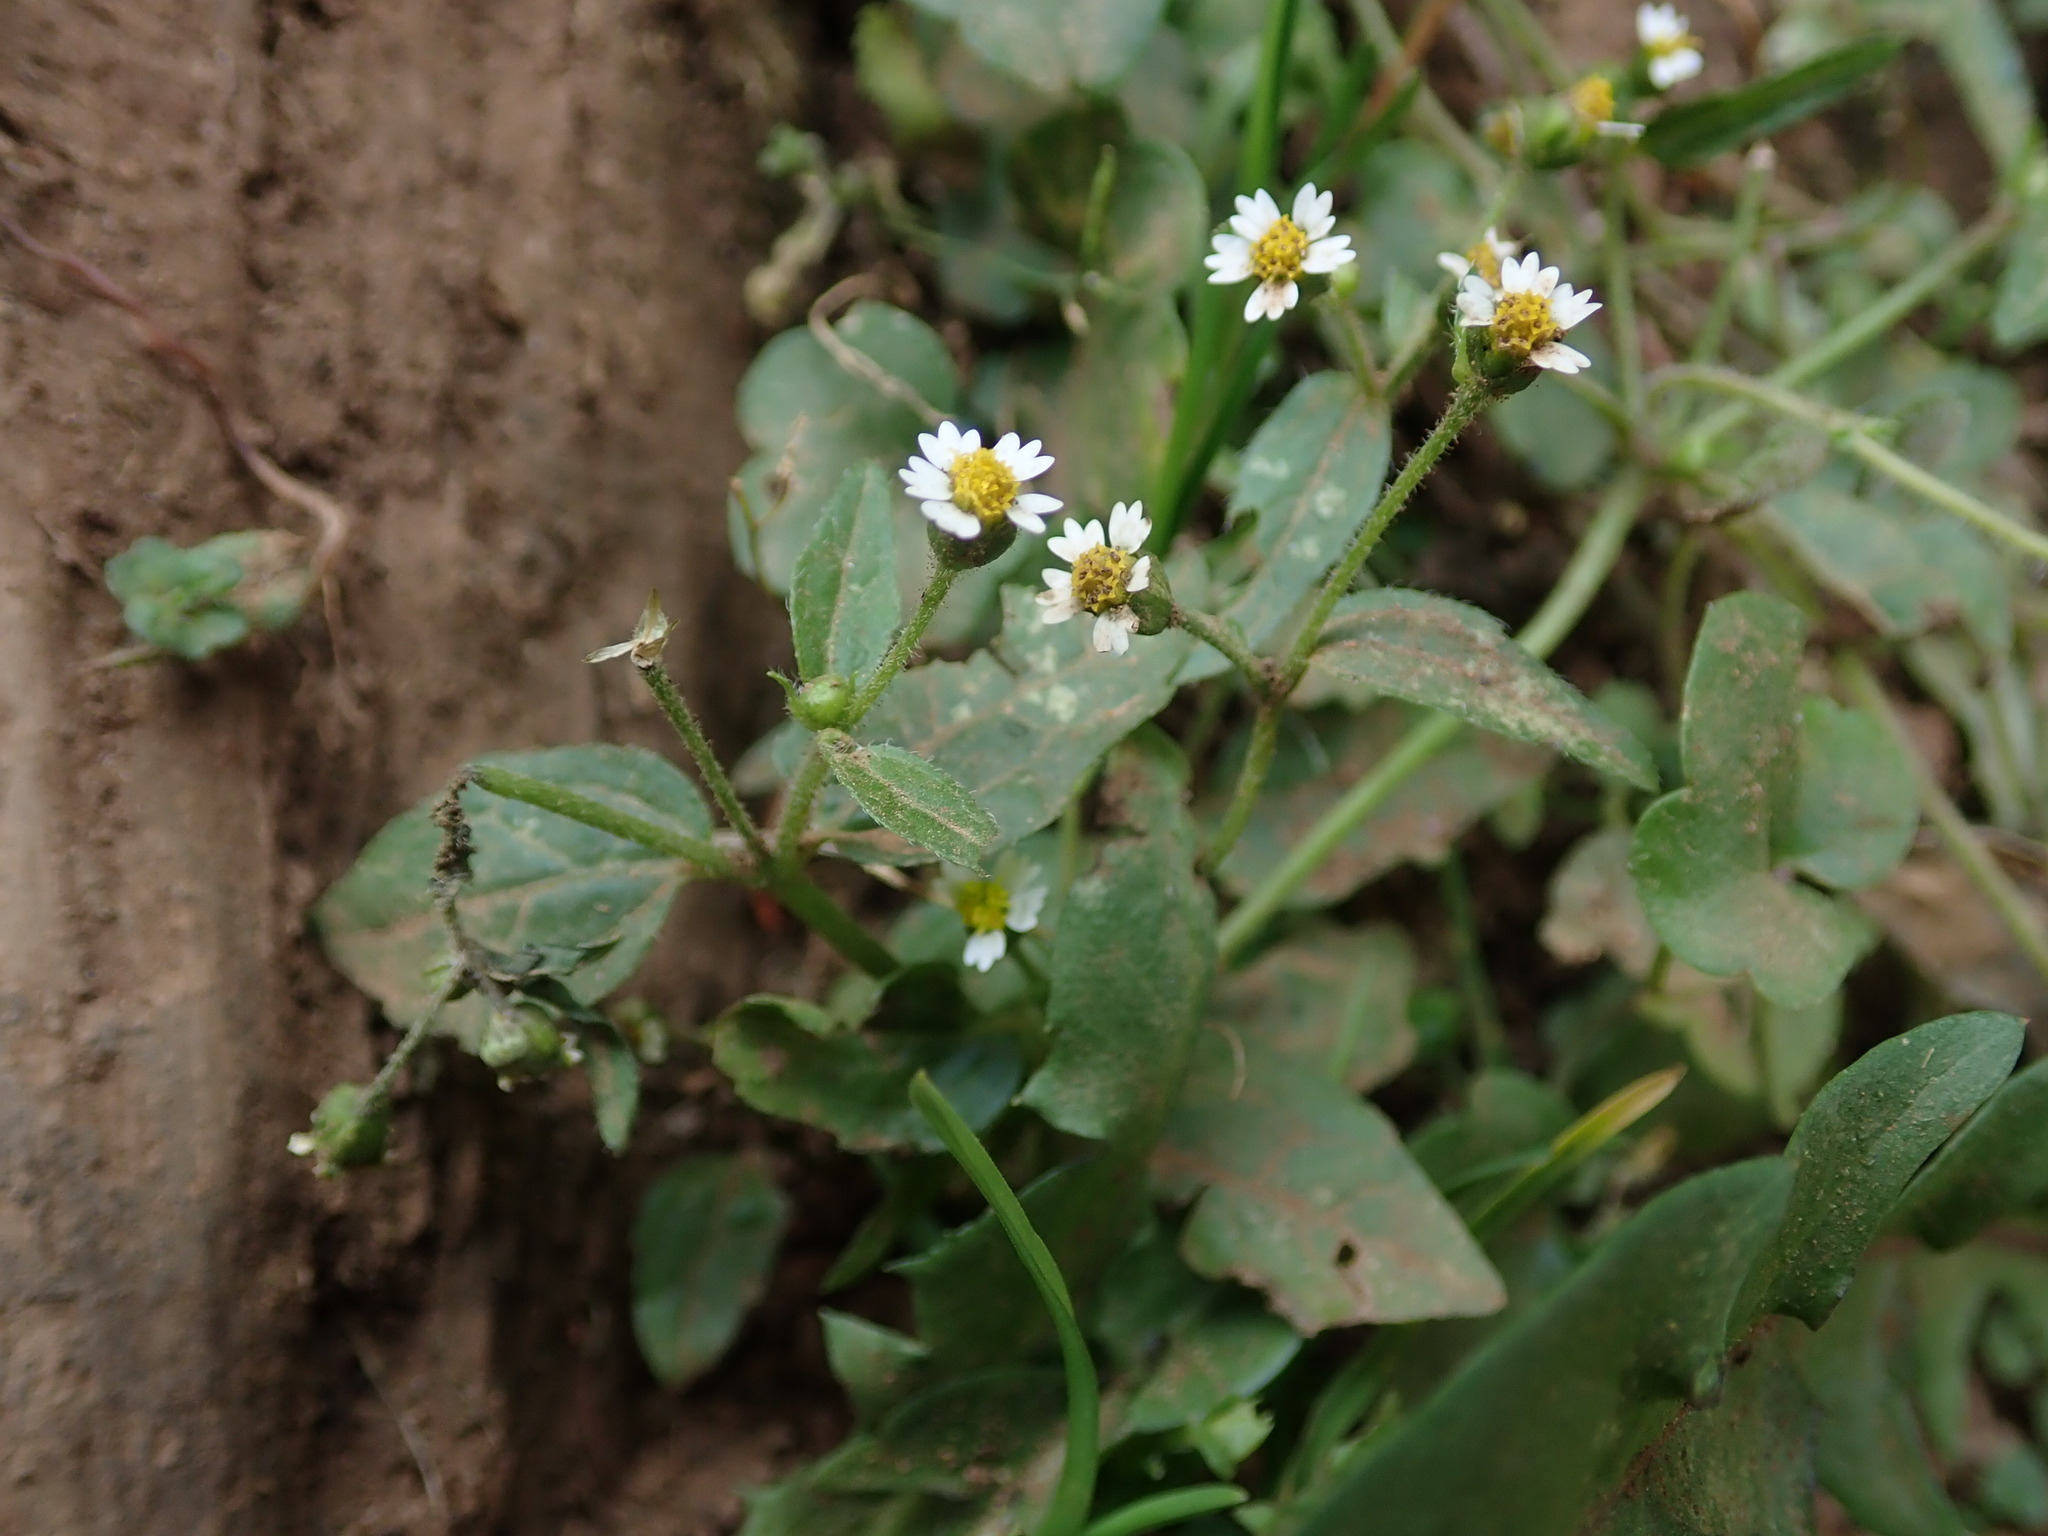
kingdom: Plantae
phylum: Tracheophyta
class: Magnoliopsida
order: Asterales
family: Asteraceae
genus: Galinsoga
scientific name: Galinsoga quadriradiata
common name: Shaggy soldier
